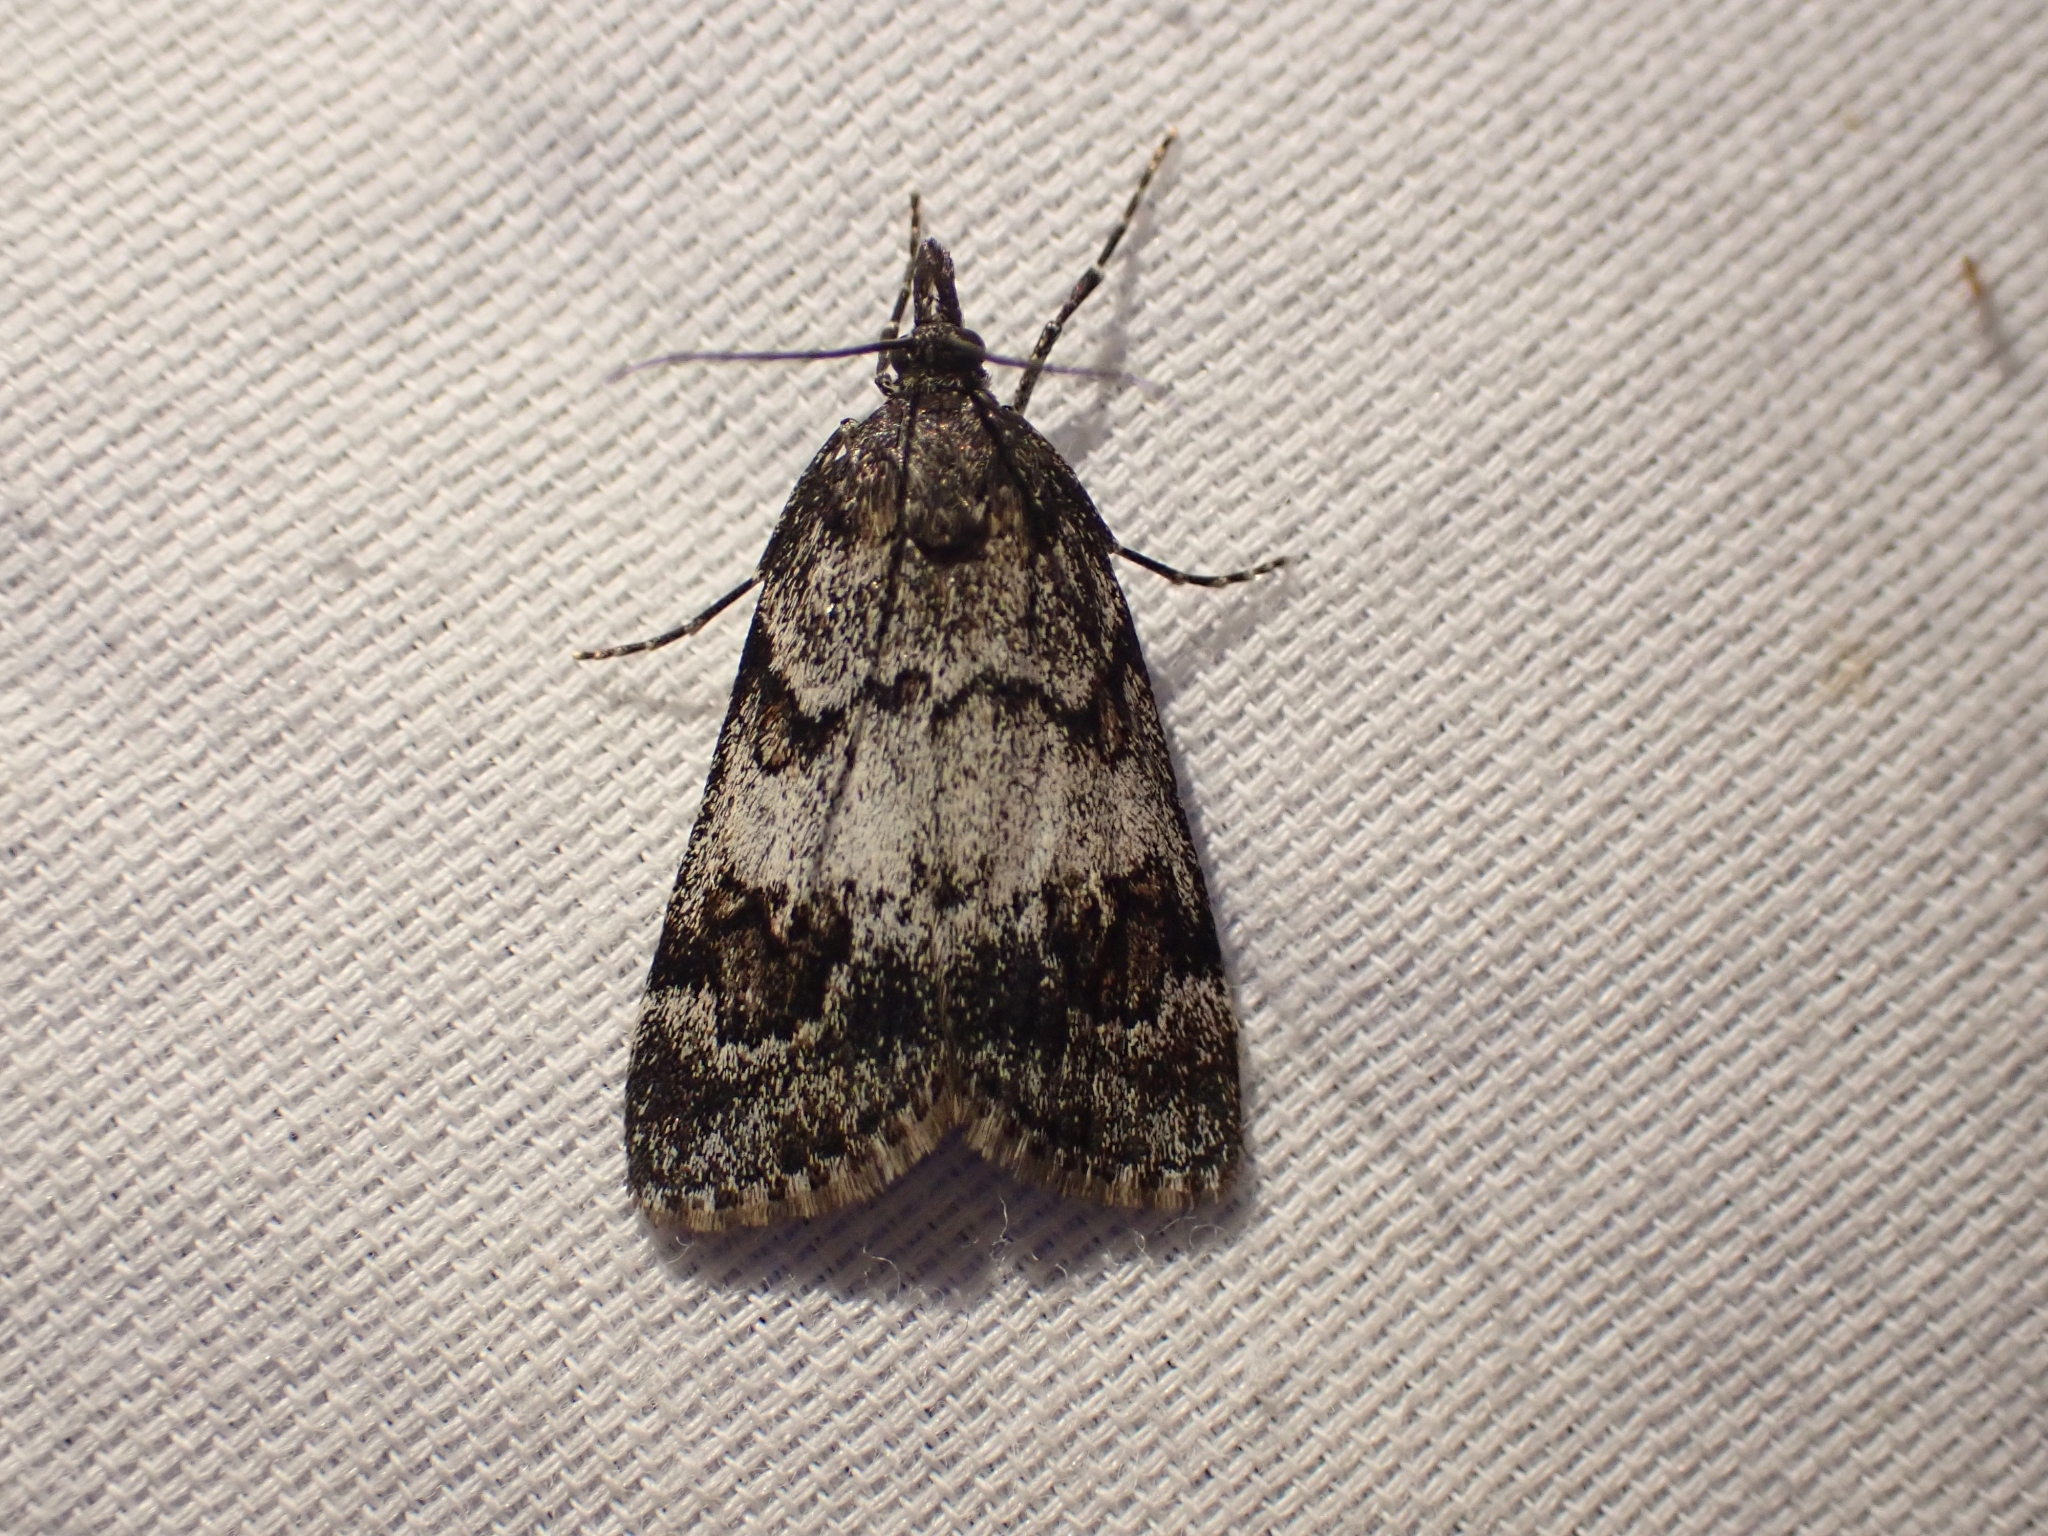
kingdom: Animalia
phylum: Arthropoda
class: Insecta
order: Lepidoptera
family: Crambidae
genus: Gesneria
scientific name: Gesneria centuriella
